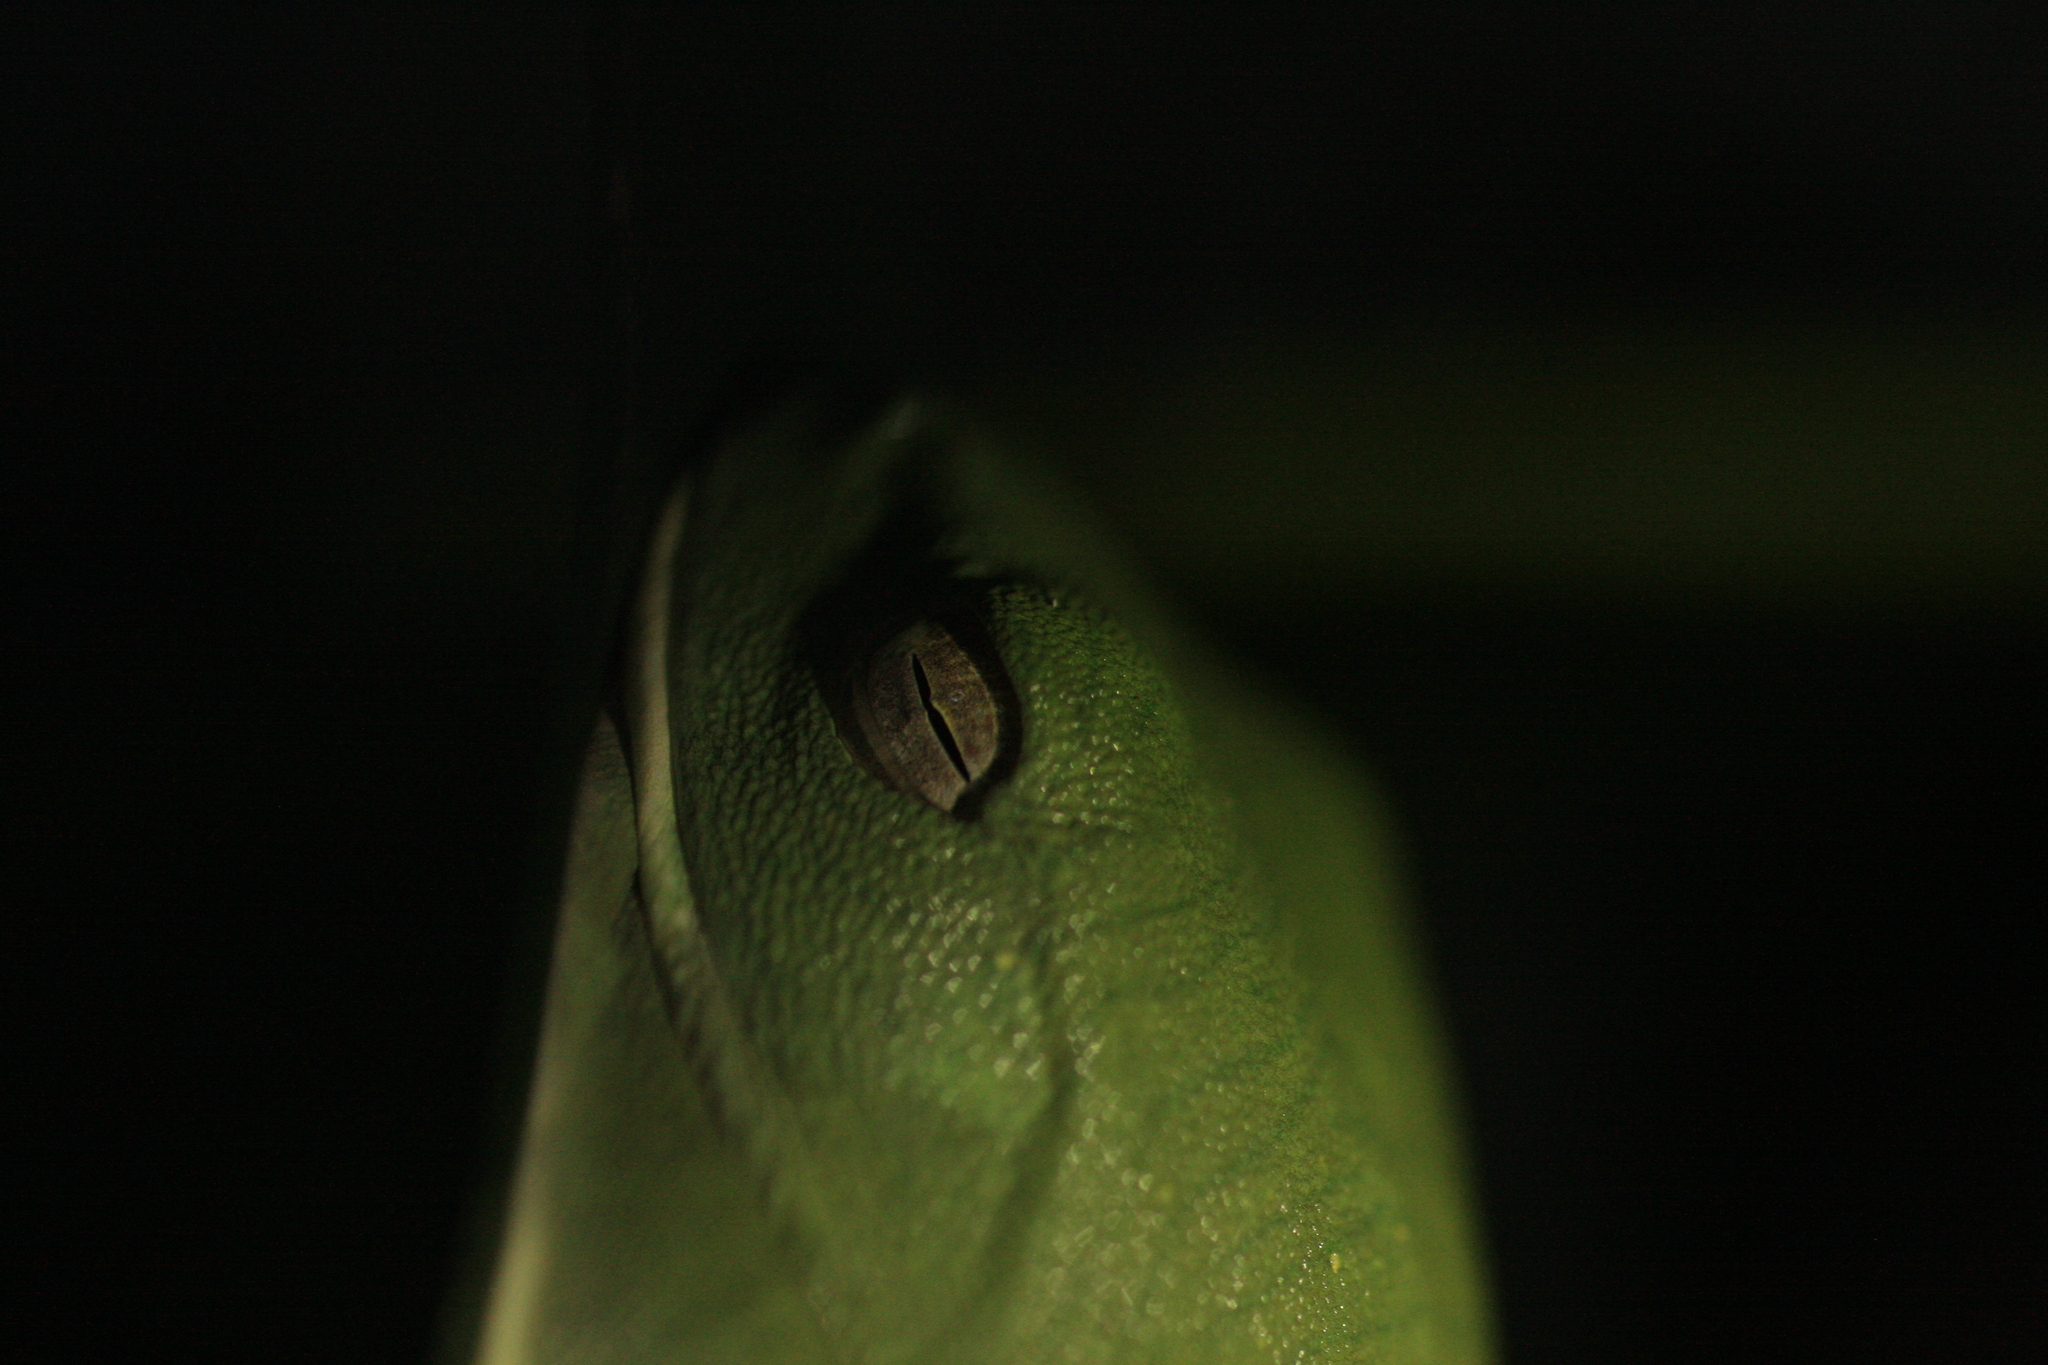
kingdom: Animalia
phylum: Chordata
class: Amphibia
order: Anura
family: Rhacophoridae
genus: Rhacophorus
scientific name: Rhacophorus pseudomalabaricus
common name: Anaimalai flying frog
